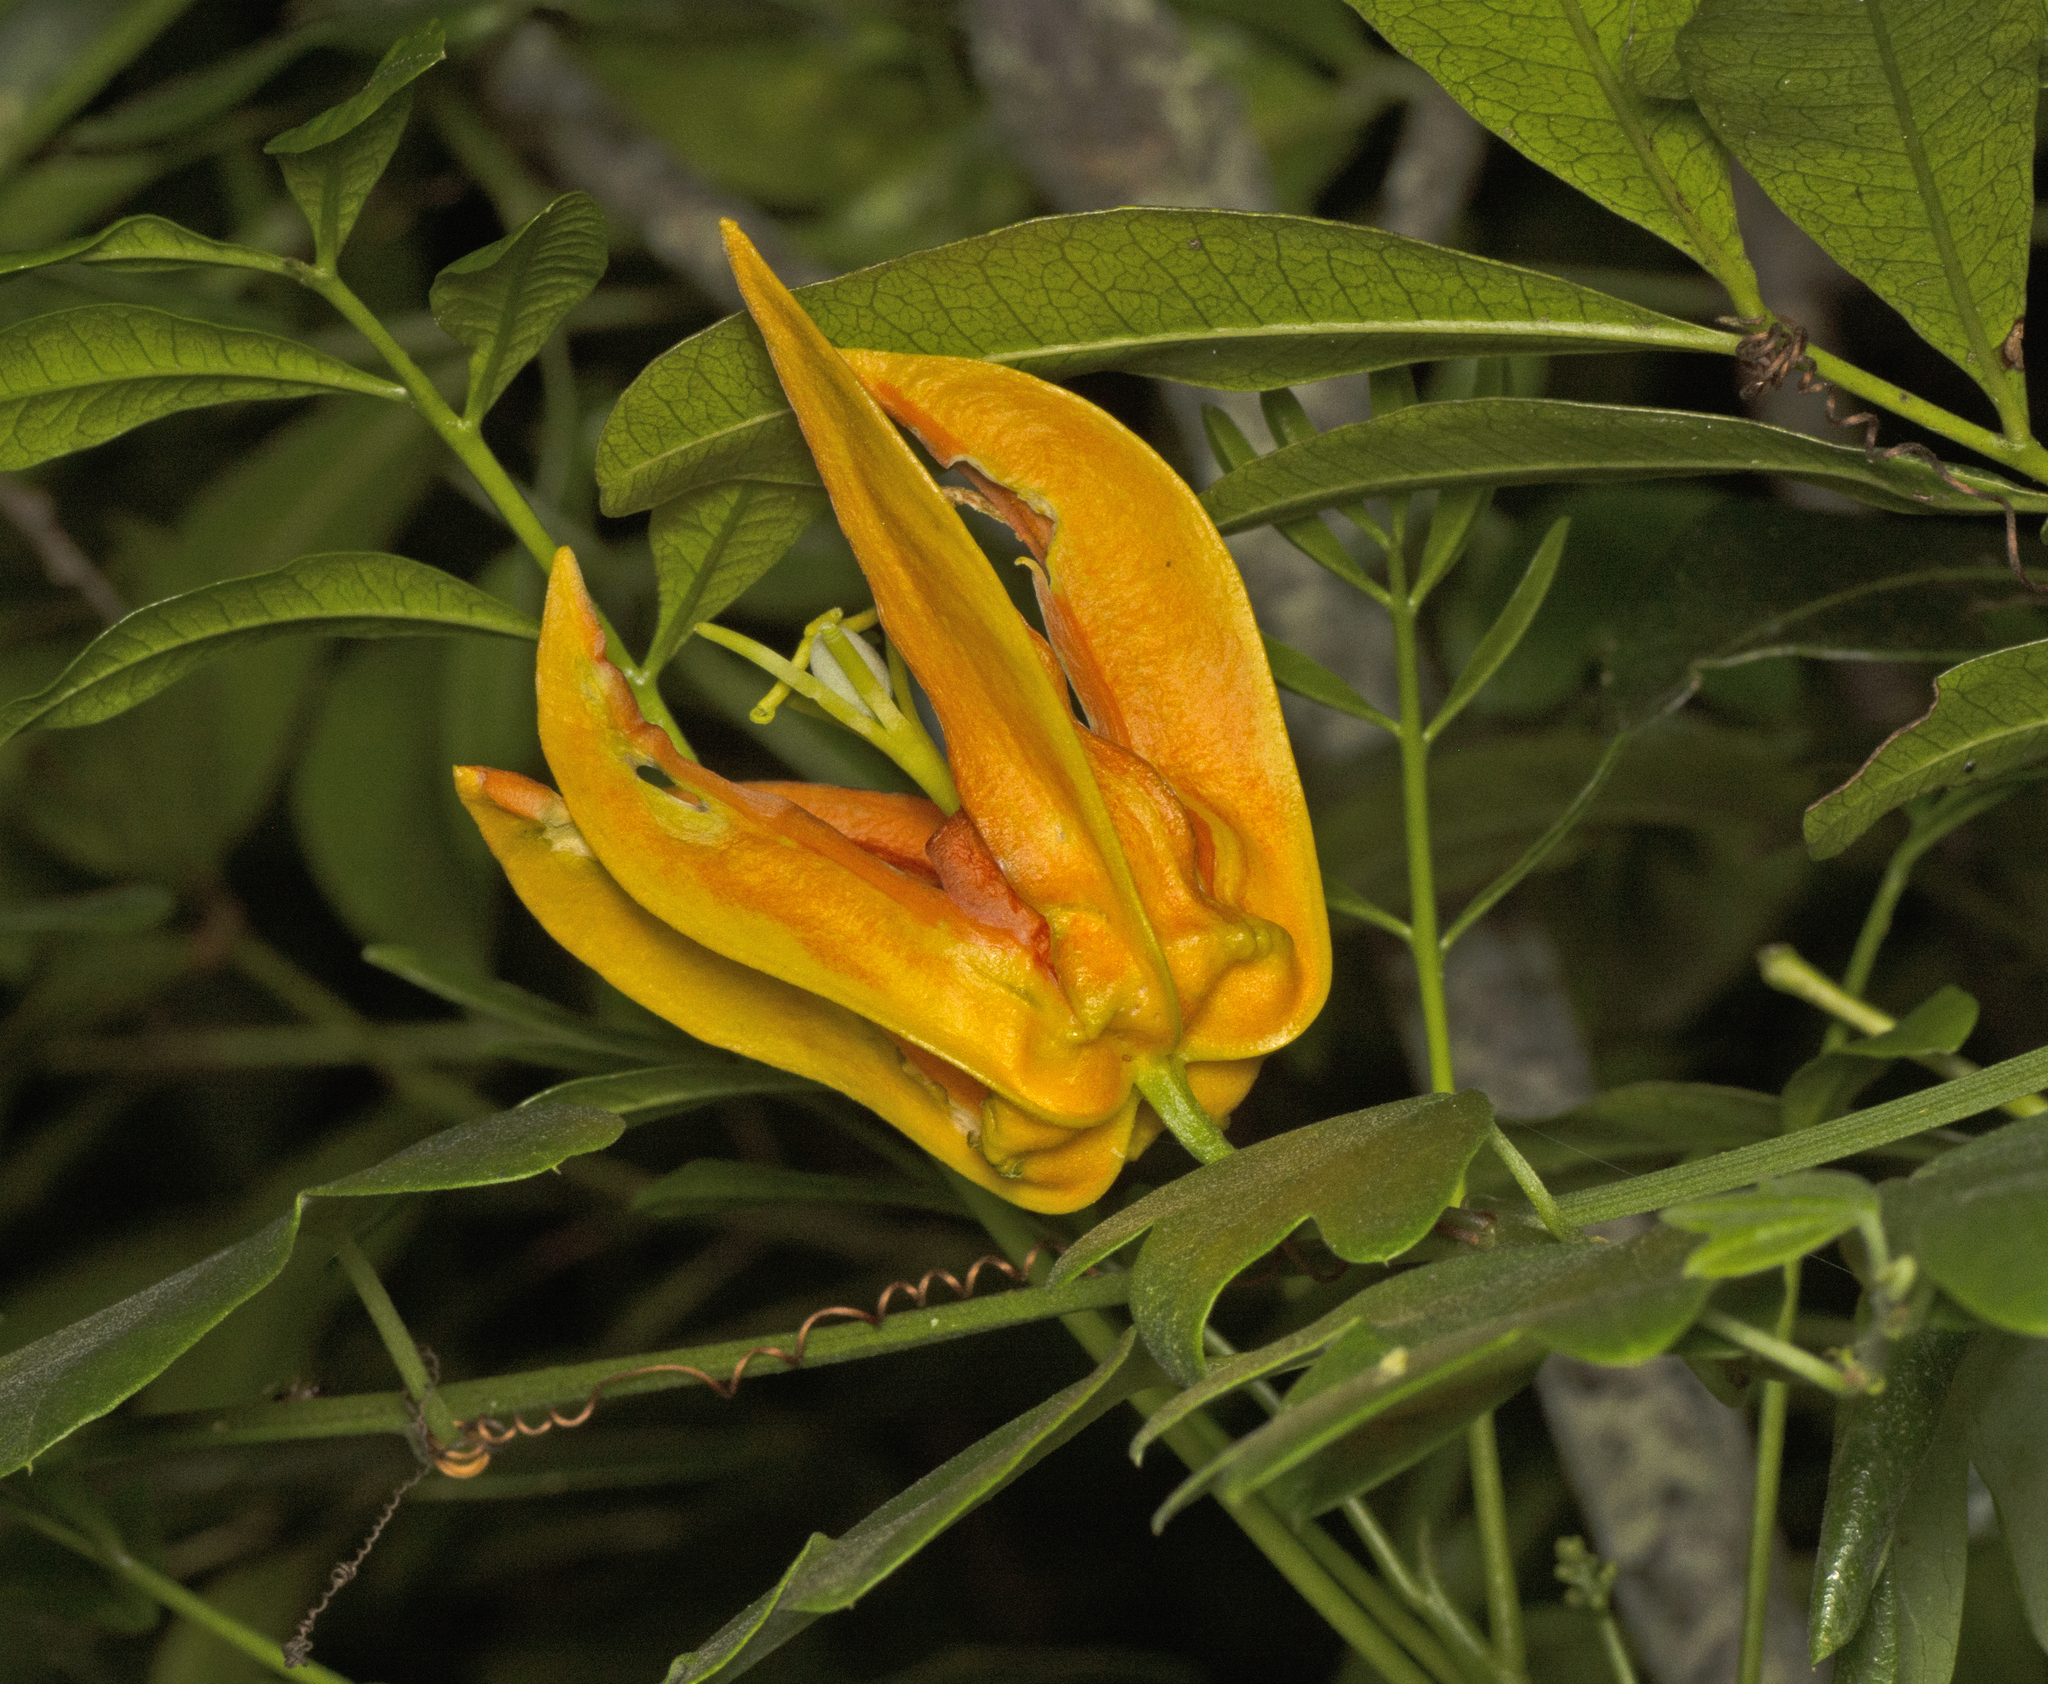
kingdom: Plantae
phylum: Tracheophyta
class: Magnoliopsida
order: Malpighiales
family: Passifloraceae
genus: Passiflora
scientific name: Passiflora aurantia
